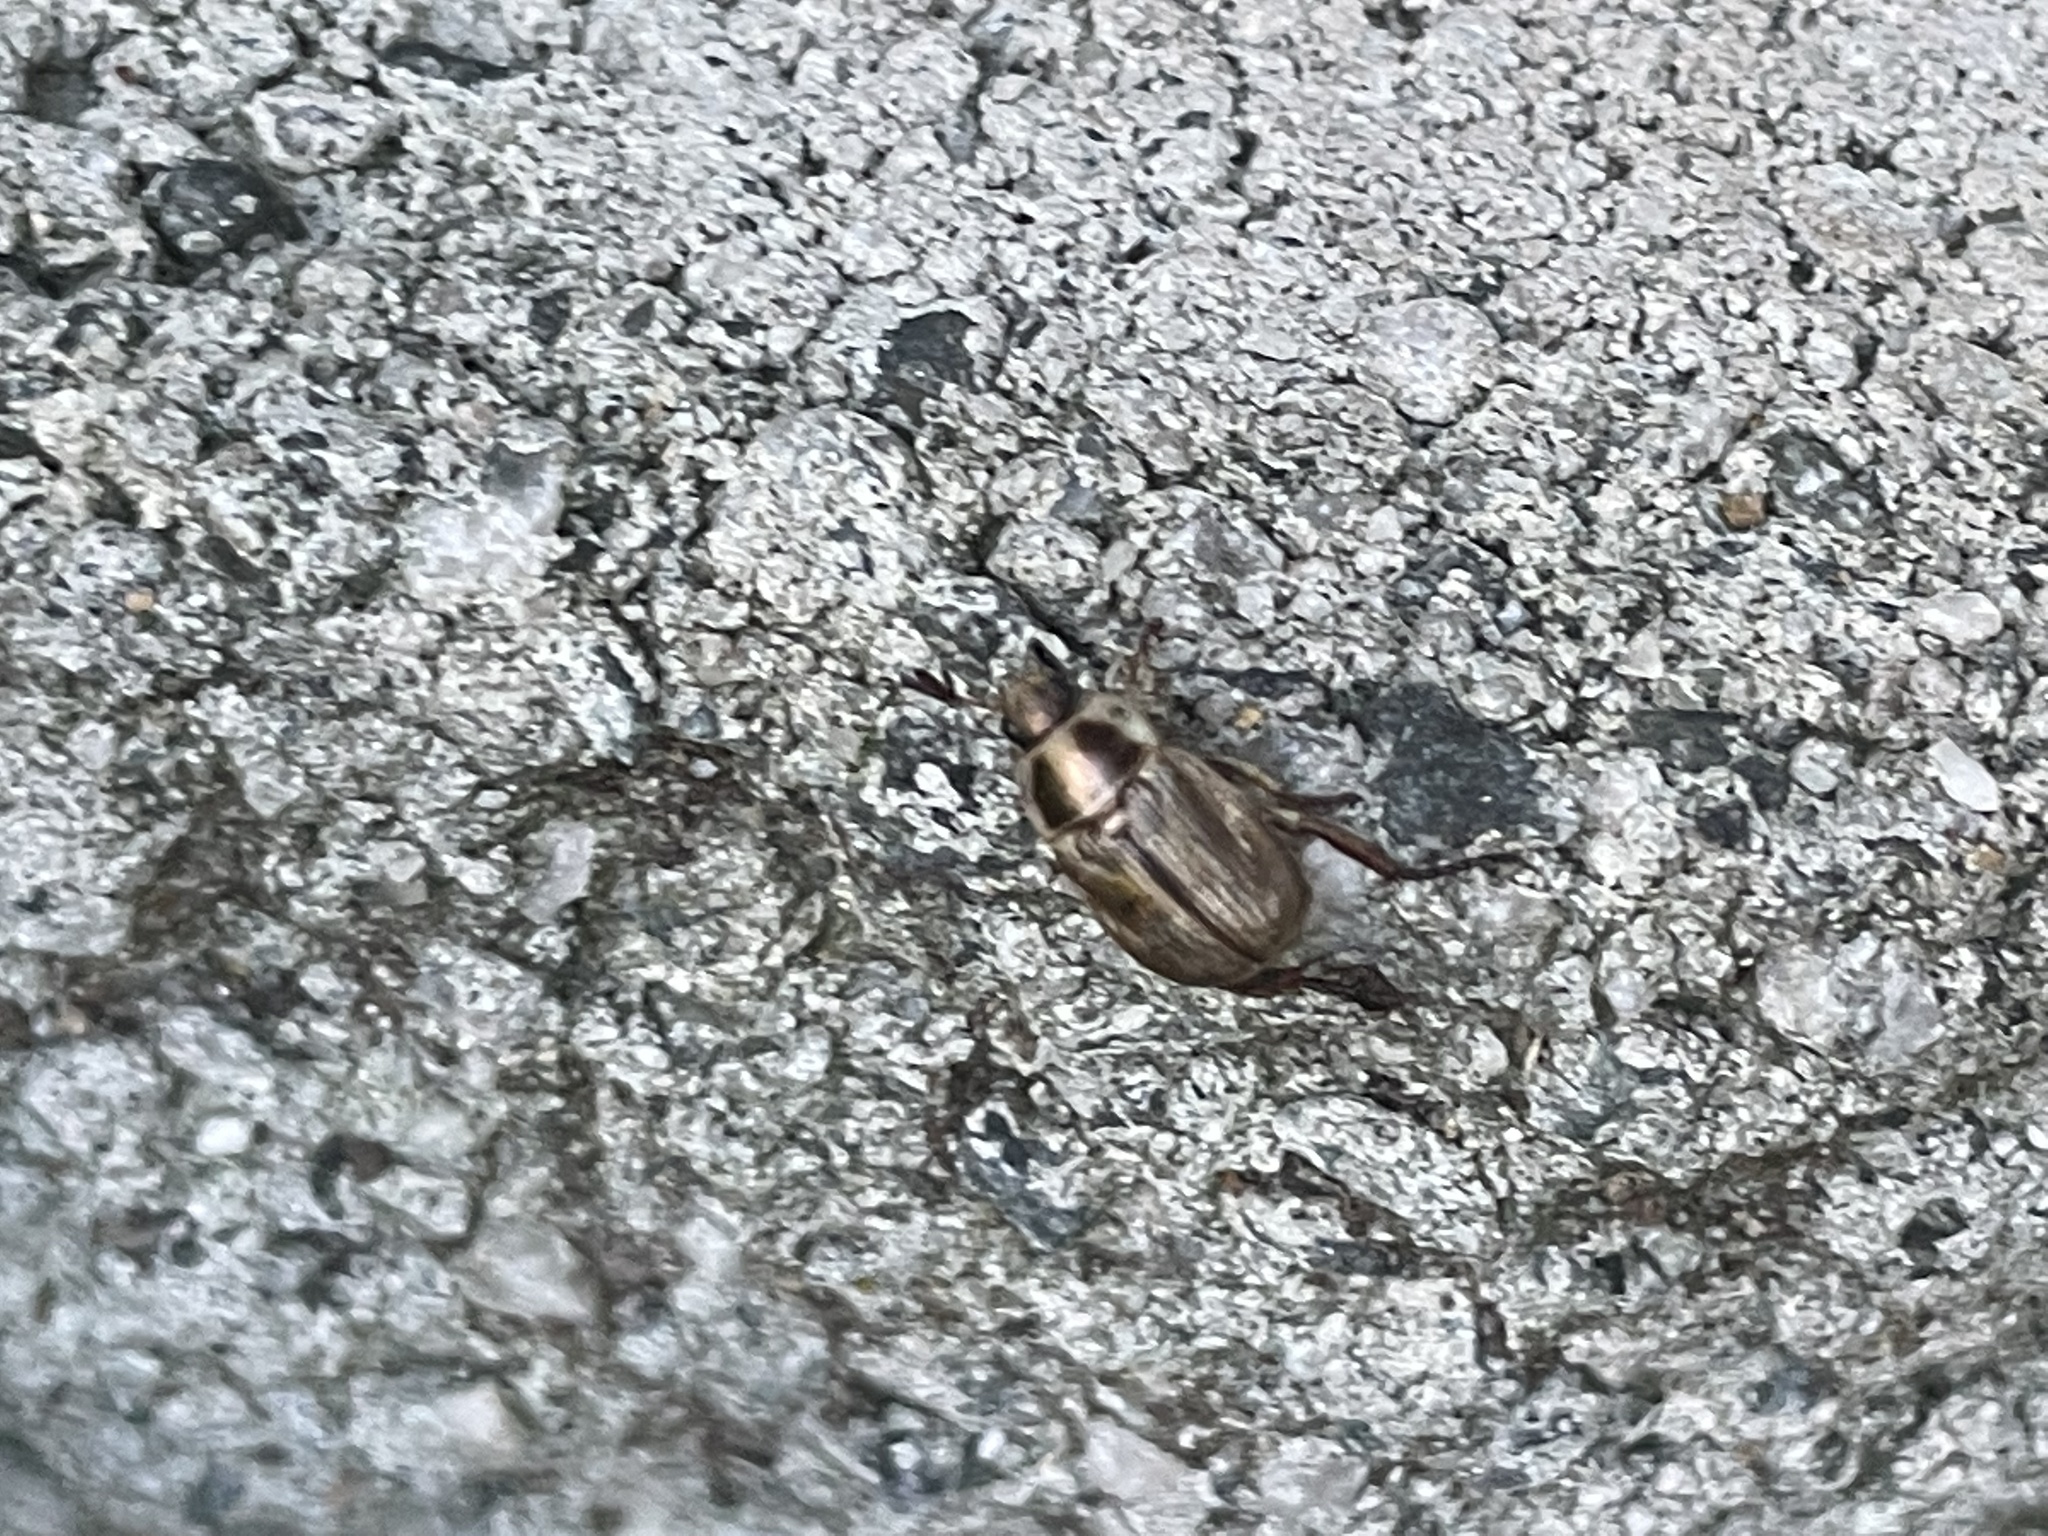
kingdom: Animalia
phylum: Arthropoda
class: Insecta
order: Coleoptera
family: Scarabaeidae
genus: Exomala
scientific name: Exomala orientalis
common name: Oriental beetle
